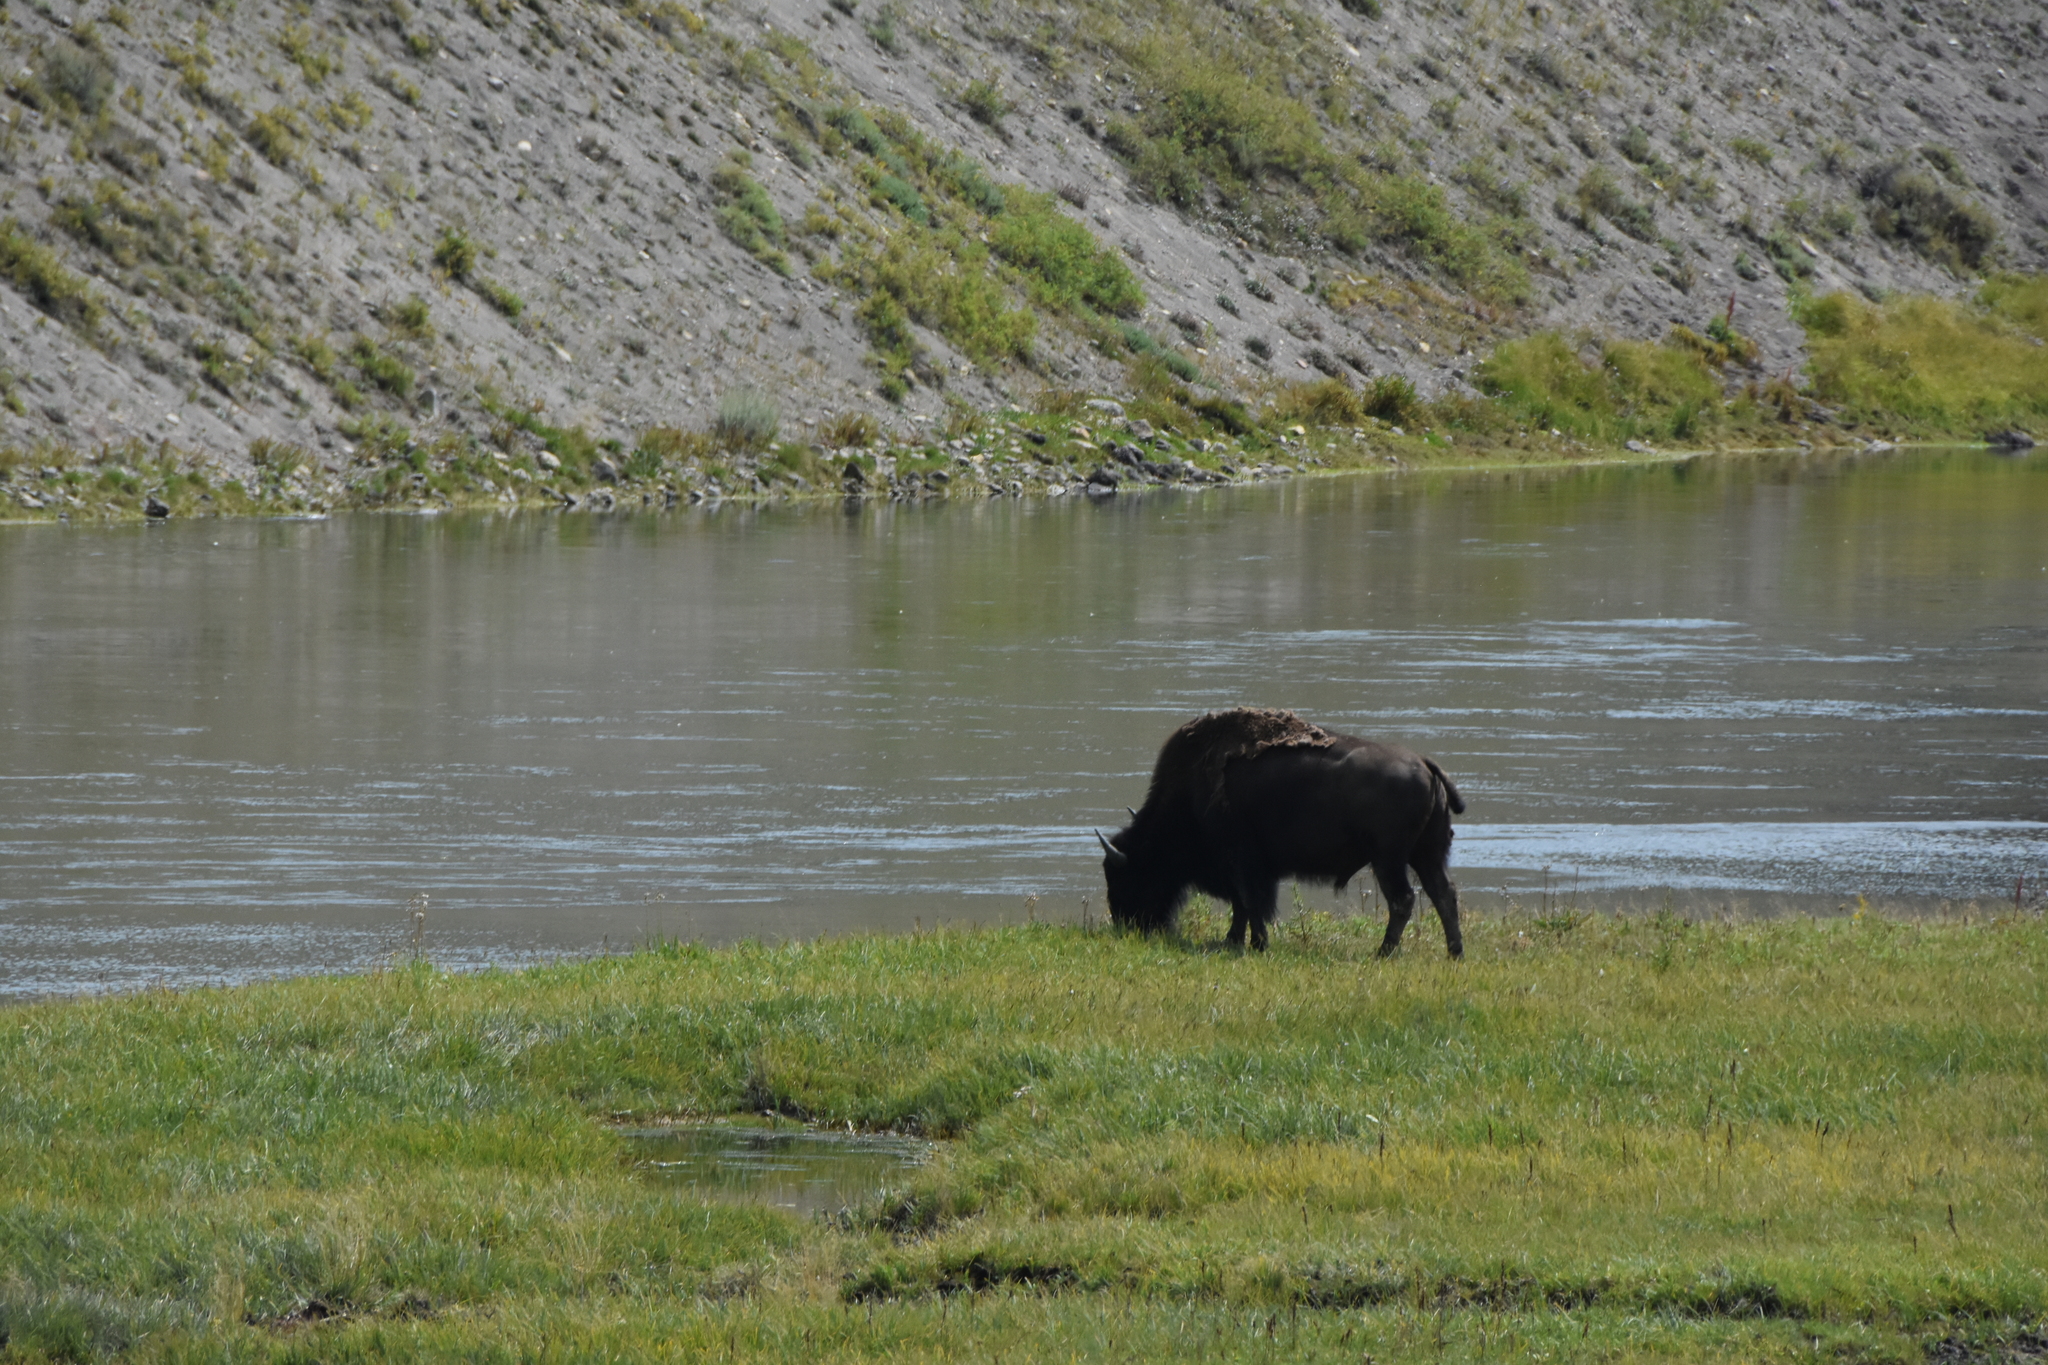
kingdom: Animalia
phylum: Chordata
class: Mammalia
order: Artiodactyla
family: Bovidae
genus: Bison
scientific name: Bison bison
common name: American bison
